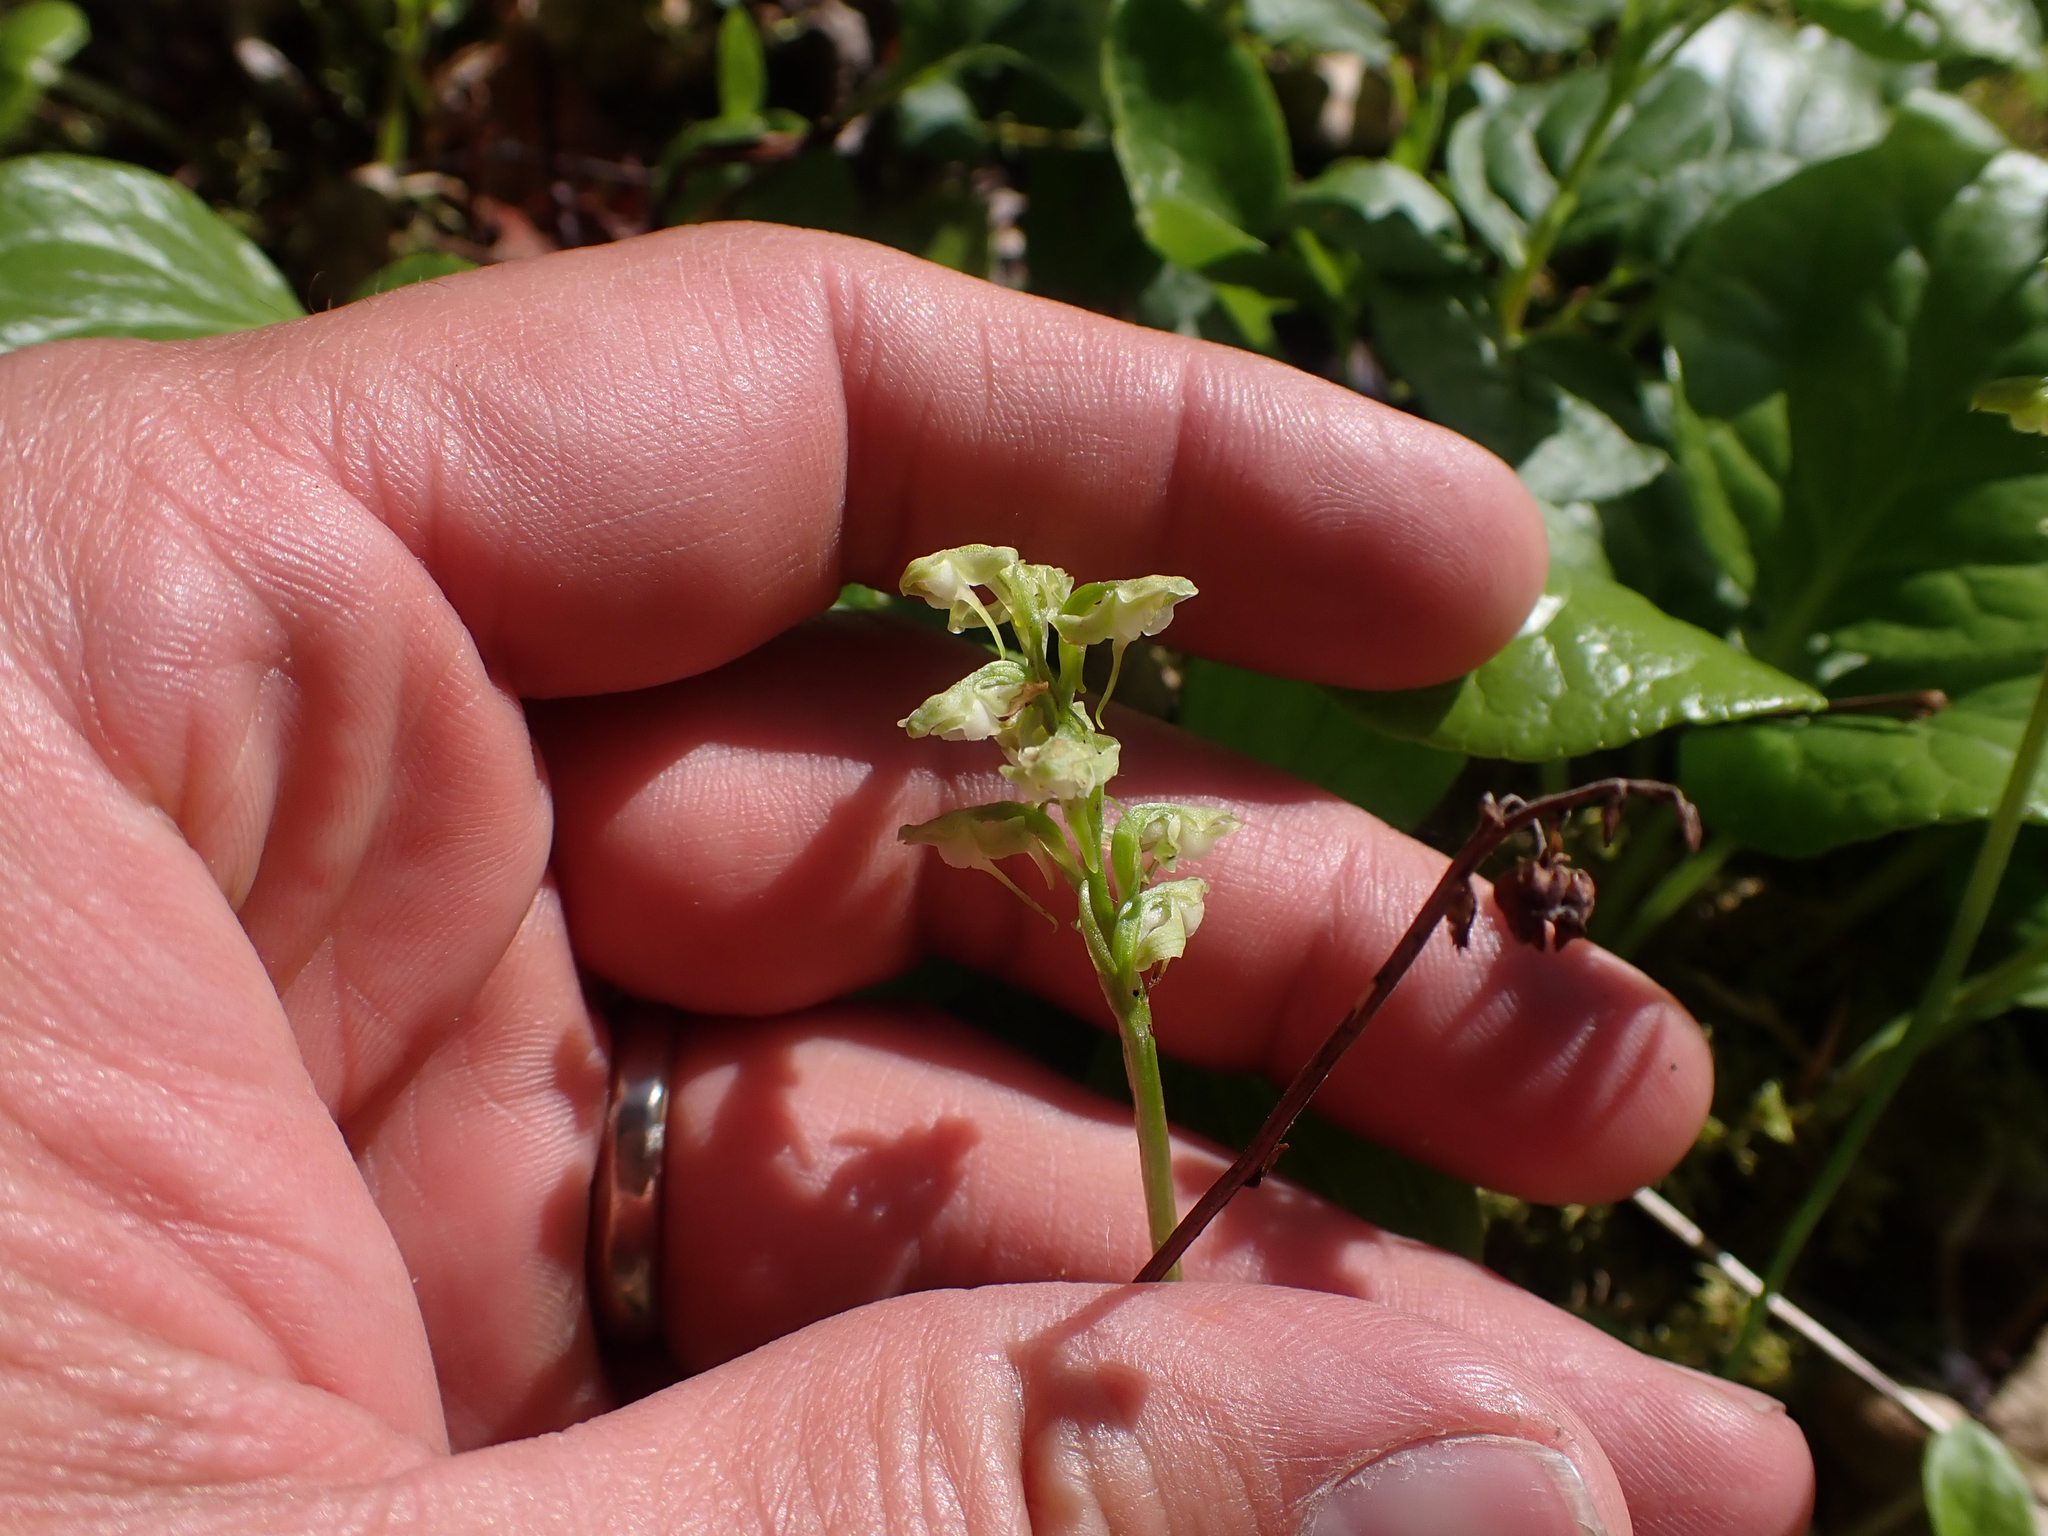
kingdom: Plantae
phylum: Tracheophyta
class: Liliopsida
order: Asparagales
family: Orchidaceae
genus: Platanthera
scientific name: Platanthera obtusata
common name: Blunt bog orchid
